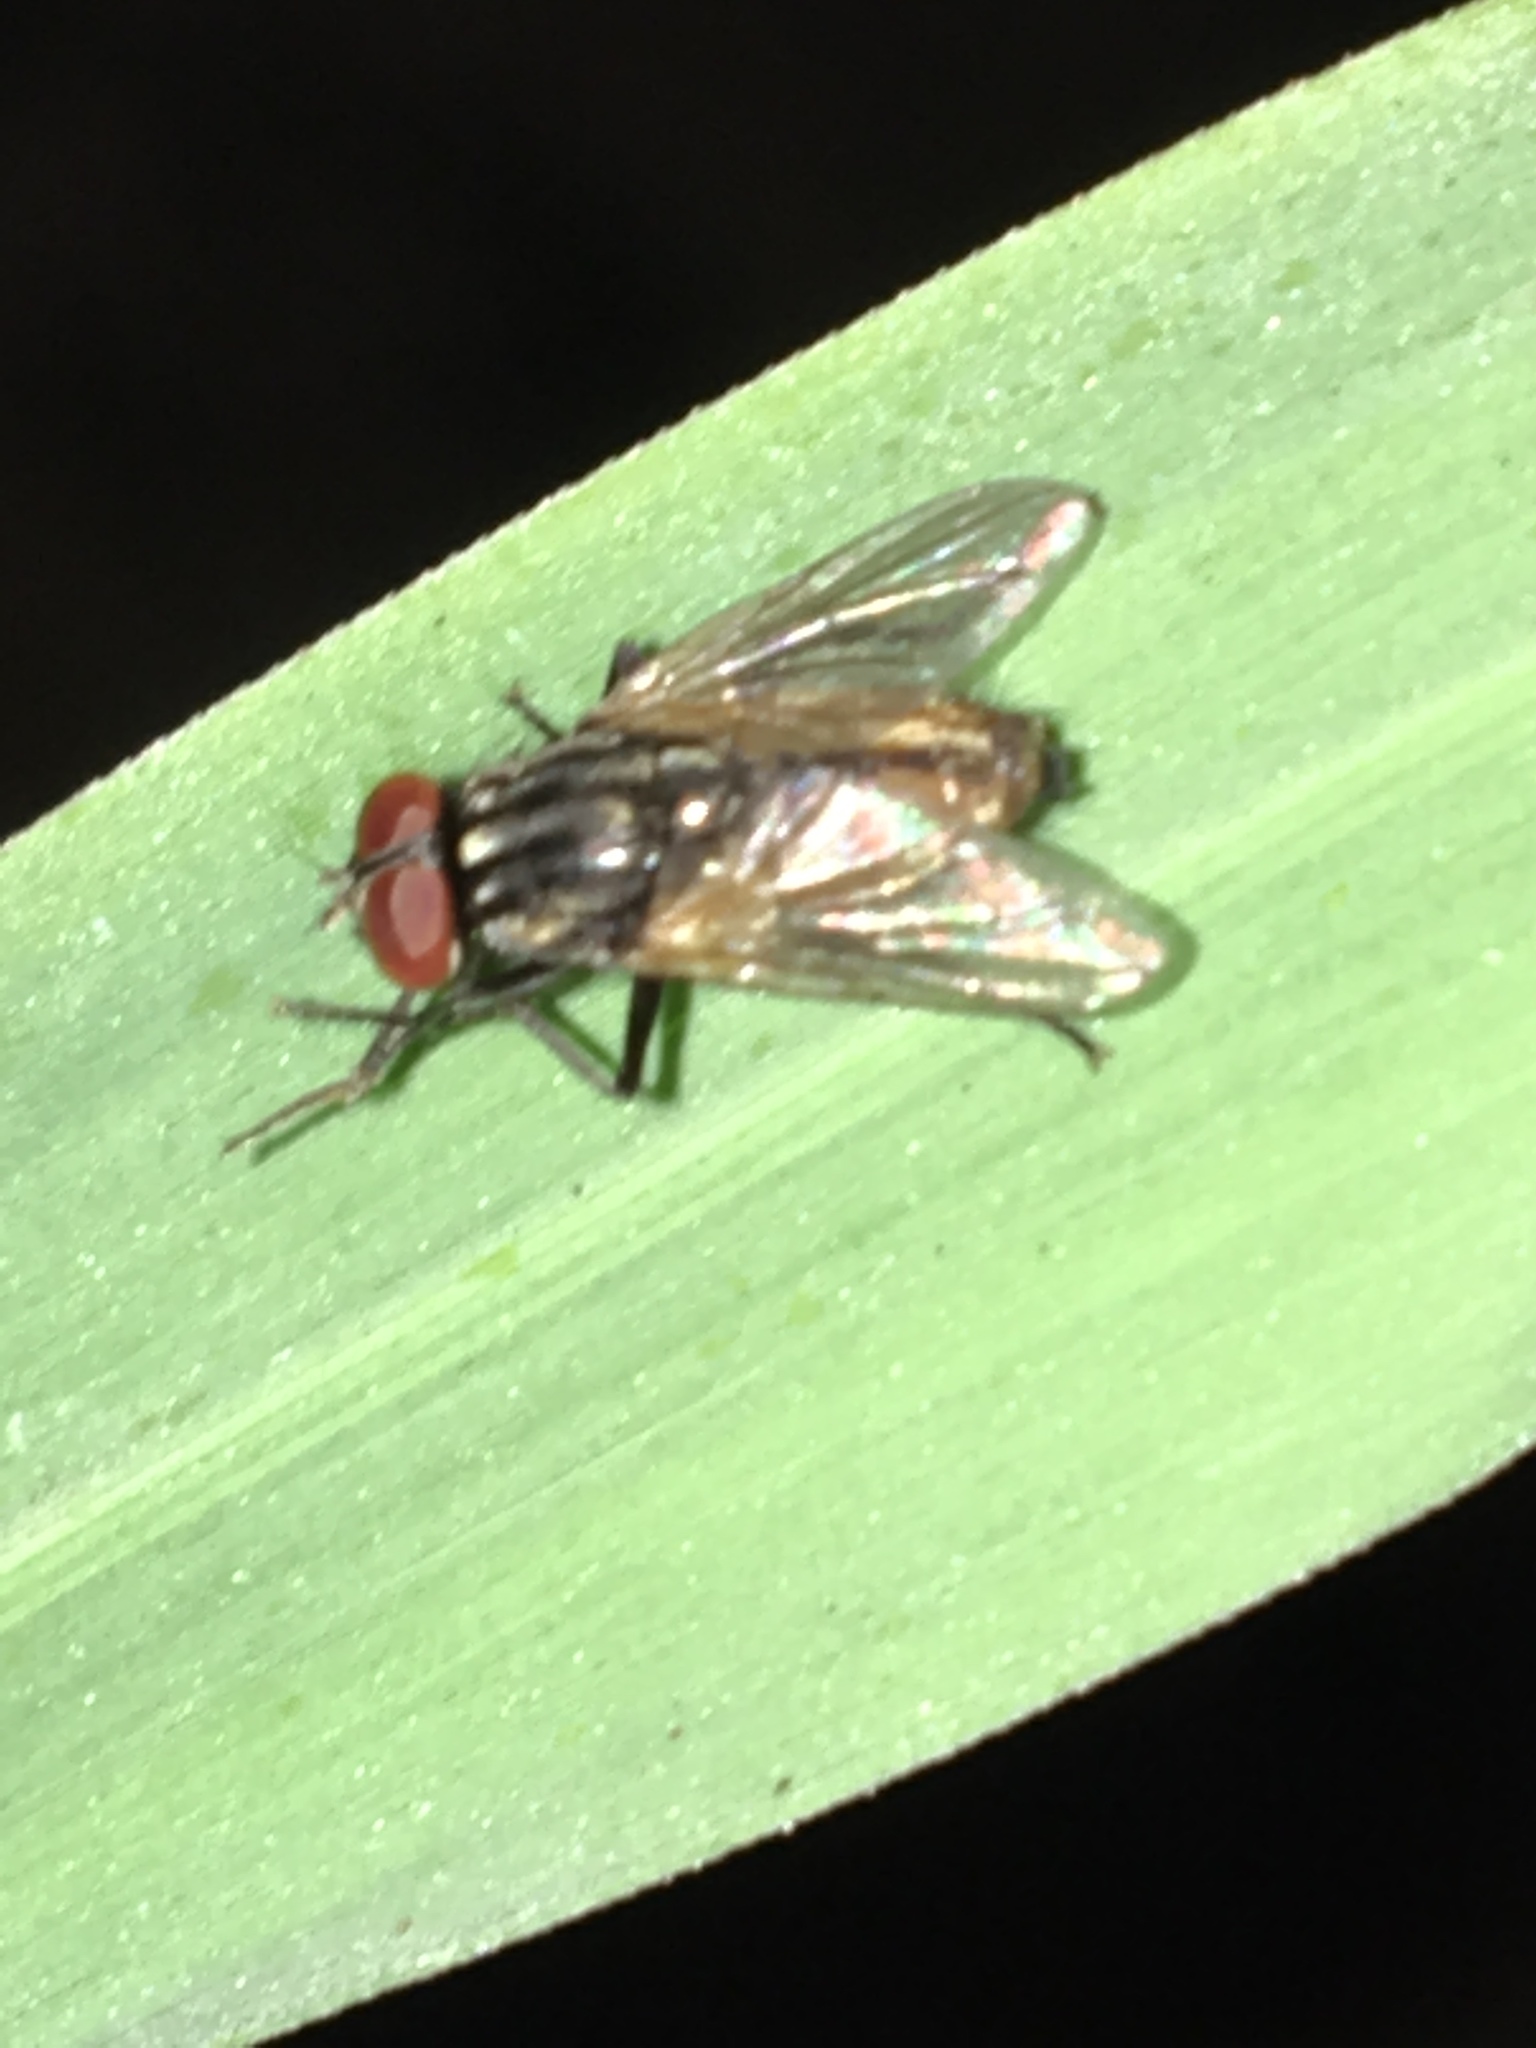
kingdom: Animalia
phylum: Arthropoda
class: Insecta
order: Diptera
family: Muscidae
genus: Musca
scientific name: Musca domestica
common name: House fly
